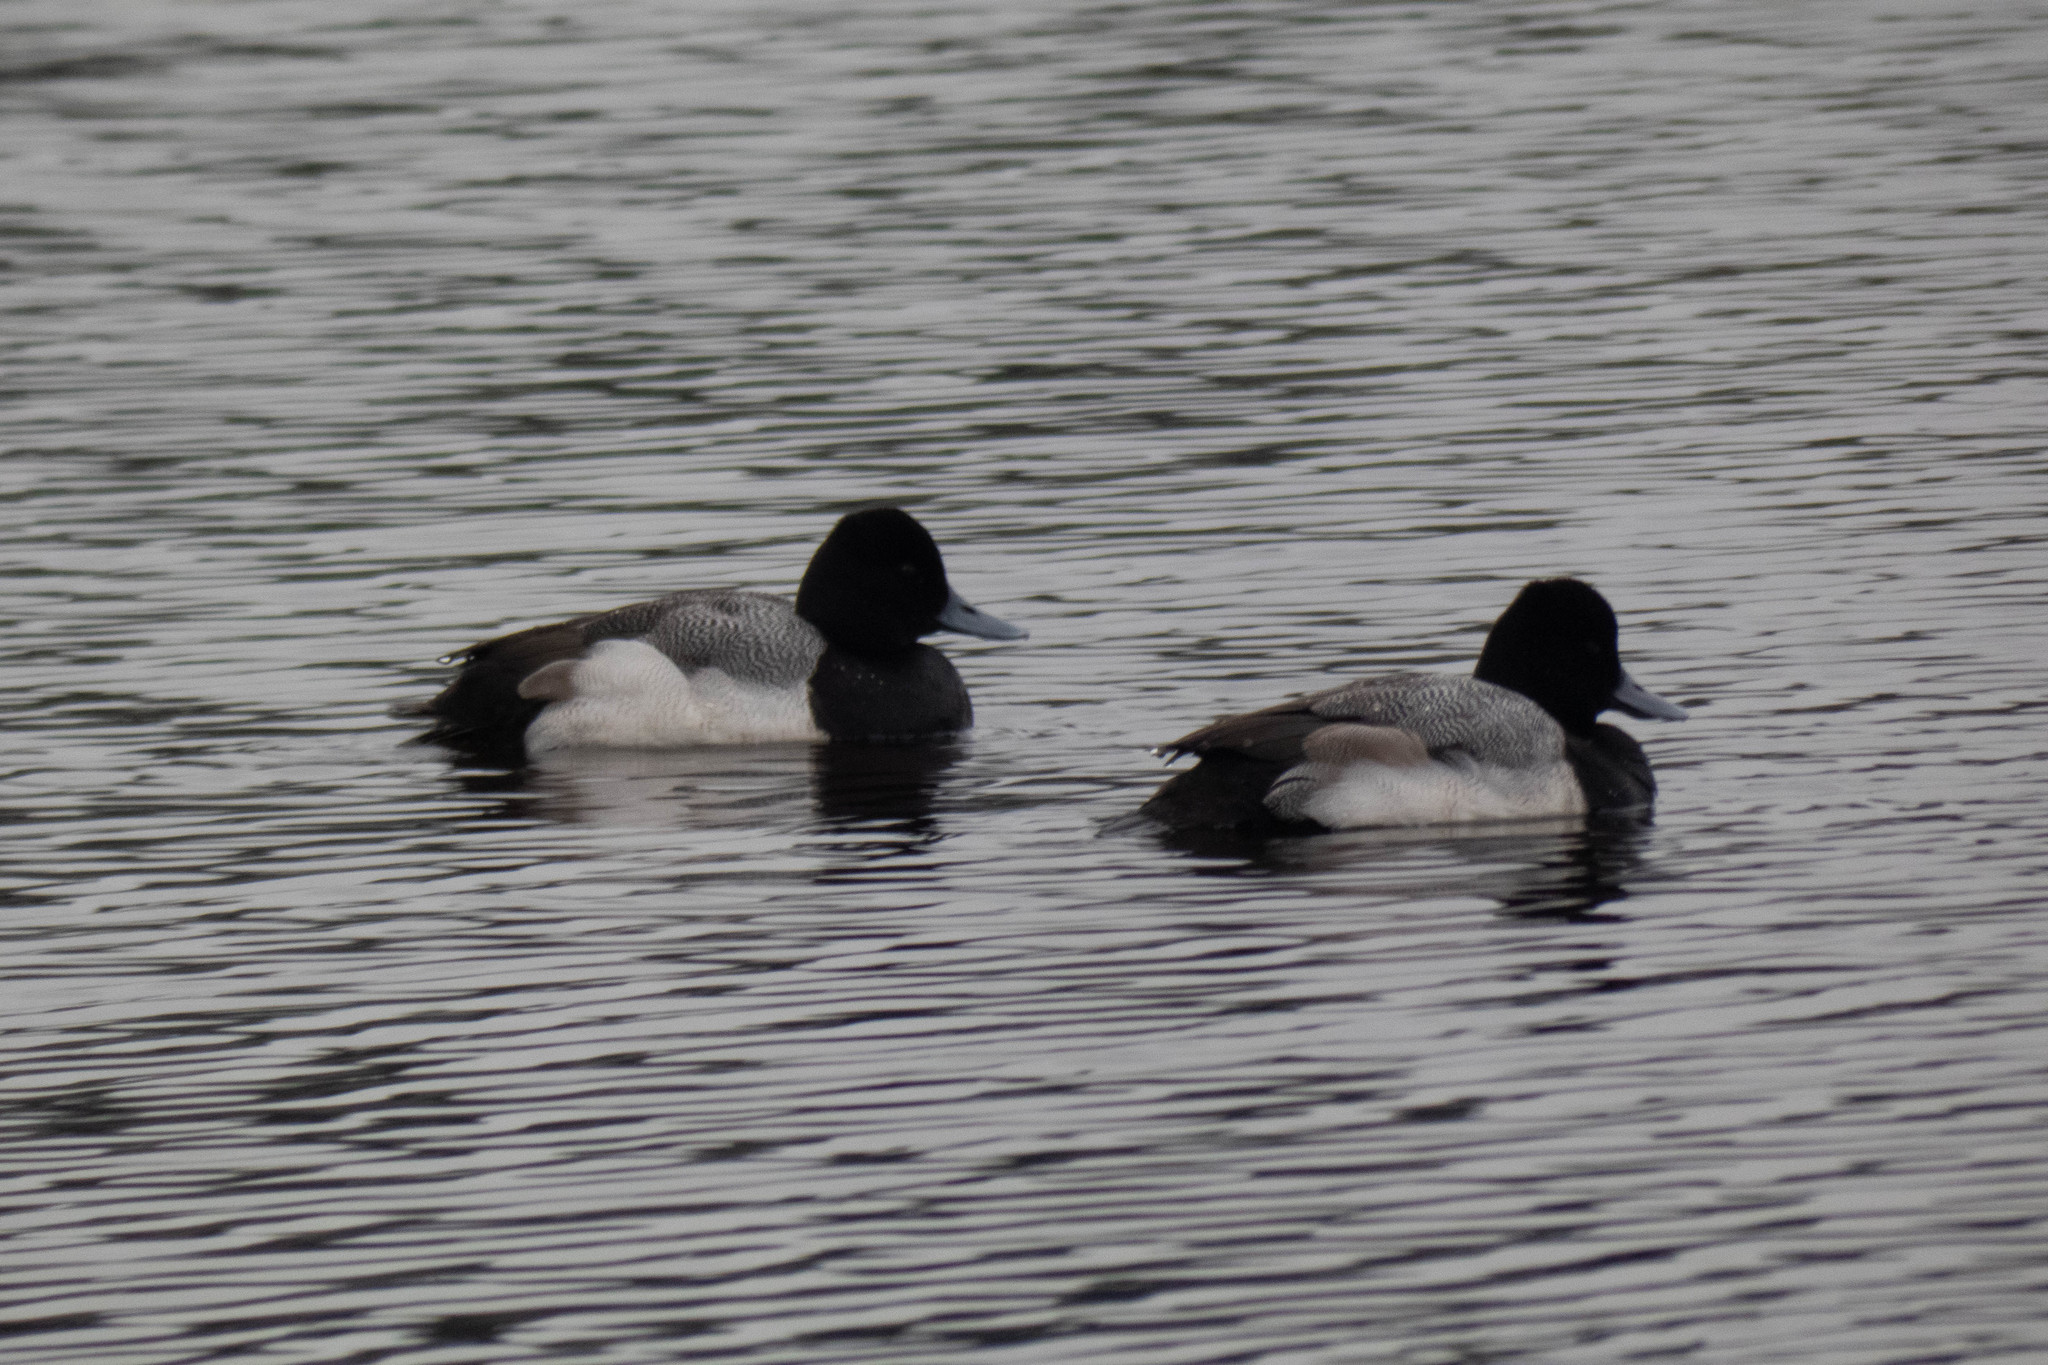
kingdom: Animalia
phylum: Chordata
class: Aves
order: Anseriformes
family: Anatidae
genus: Aythya
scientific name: Aythya affinis
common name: Lesser scaup
